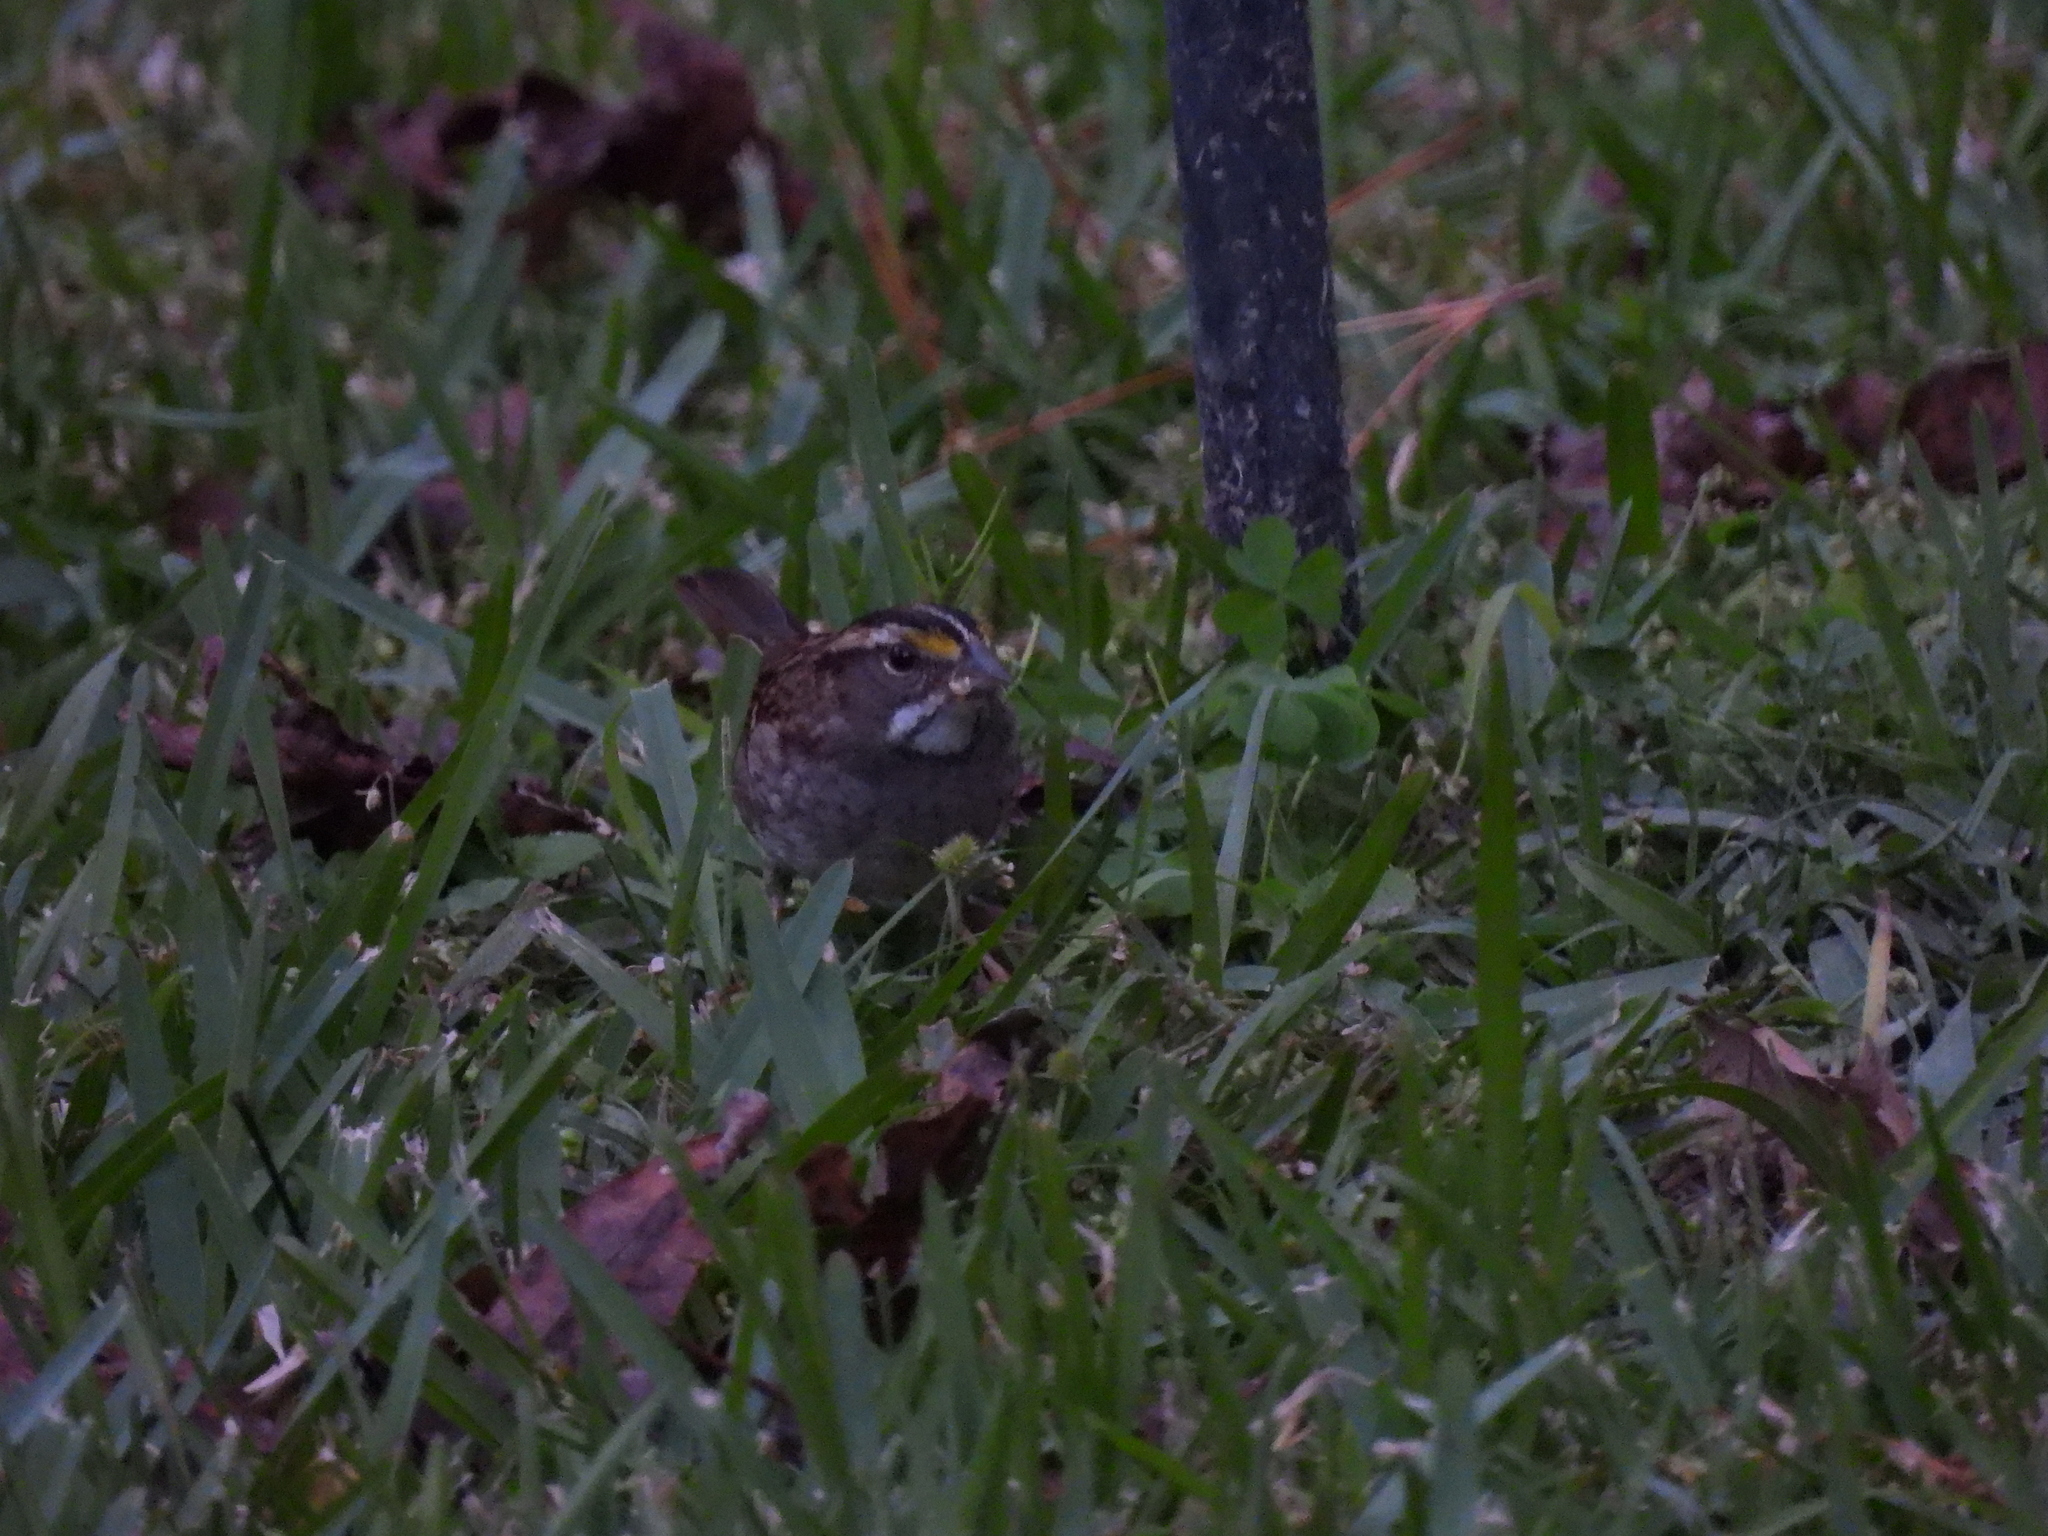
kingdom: Animalia
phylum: Chordata
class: Aves
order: Passeriformes
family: Passerellidae
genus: Zonotrichia
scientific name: Zonotrichia albicollis
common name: White-throated sparrow
